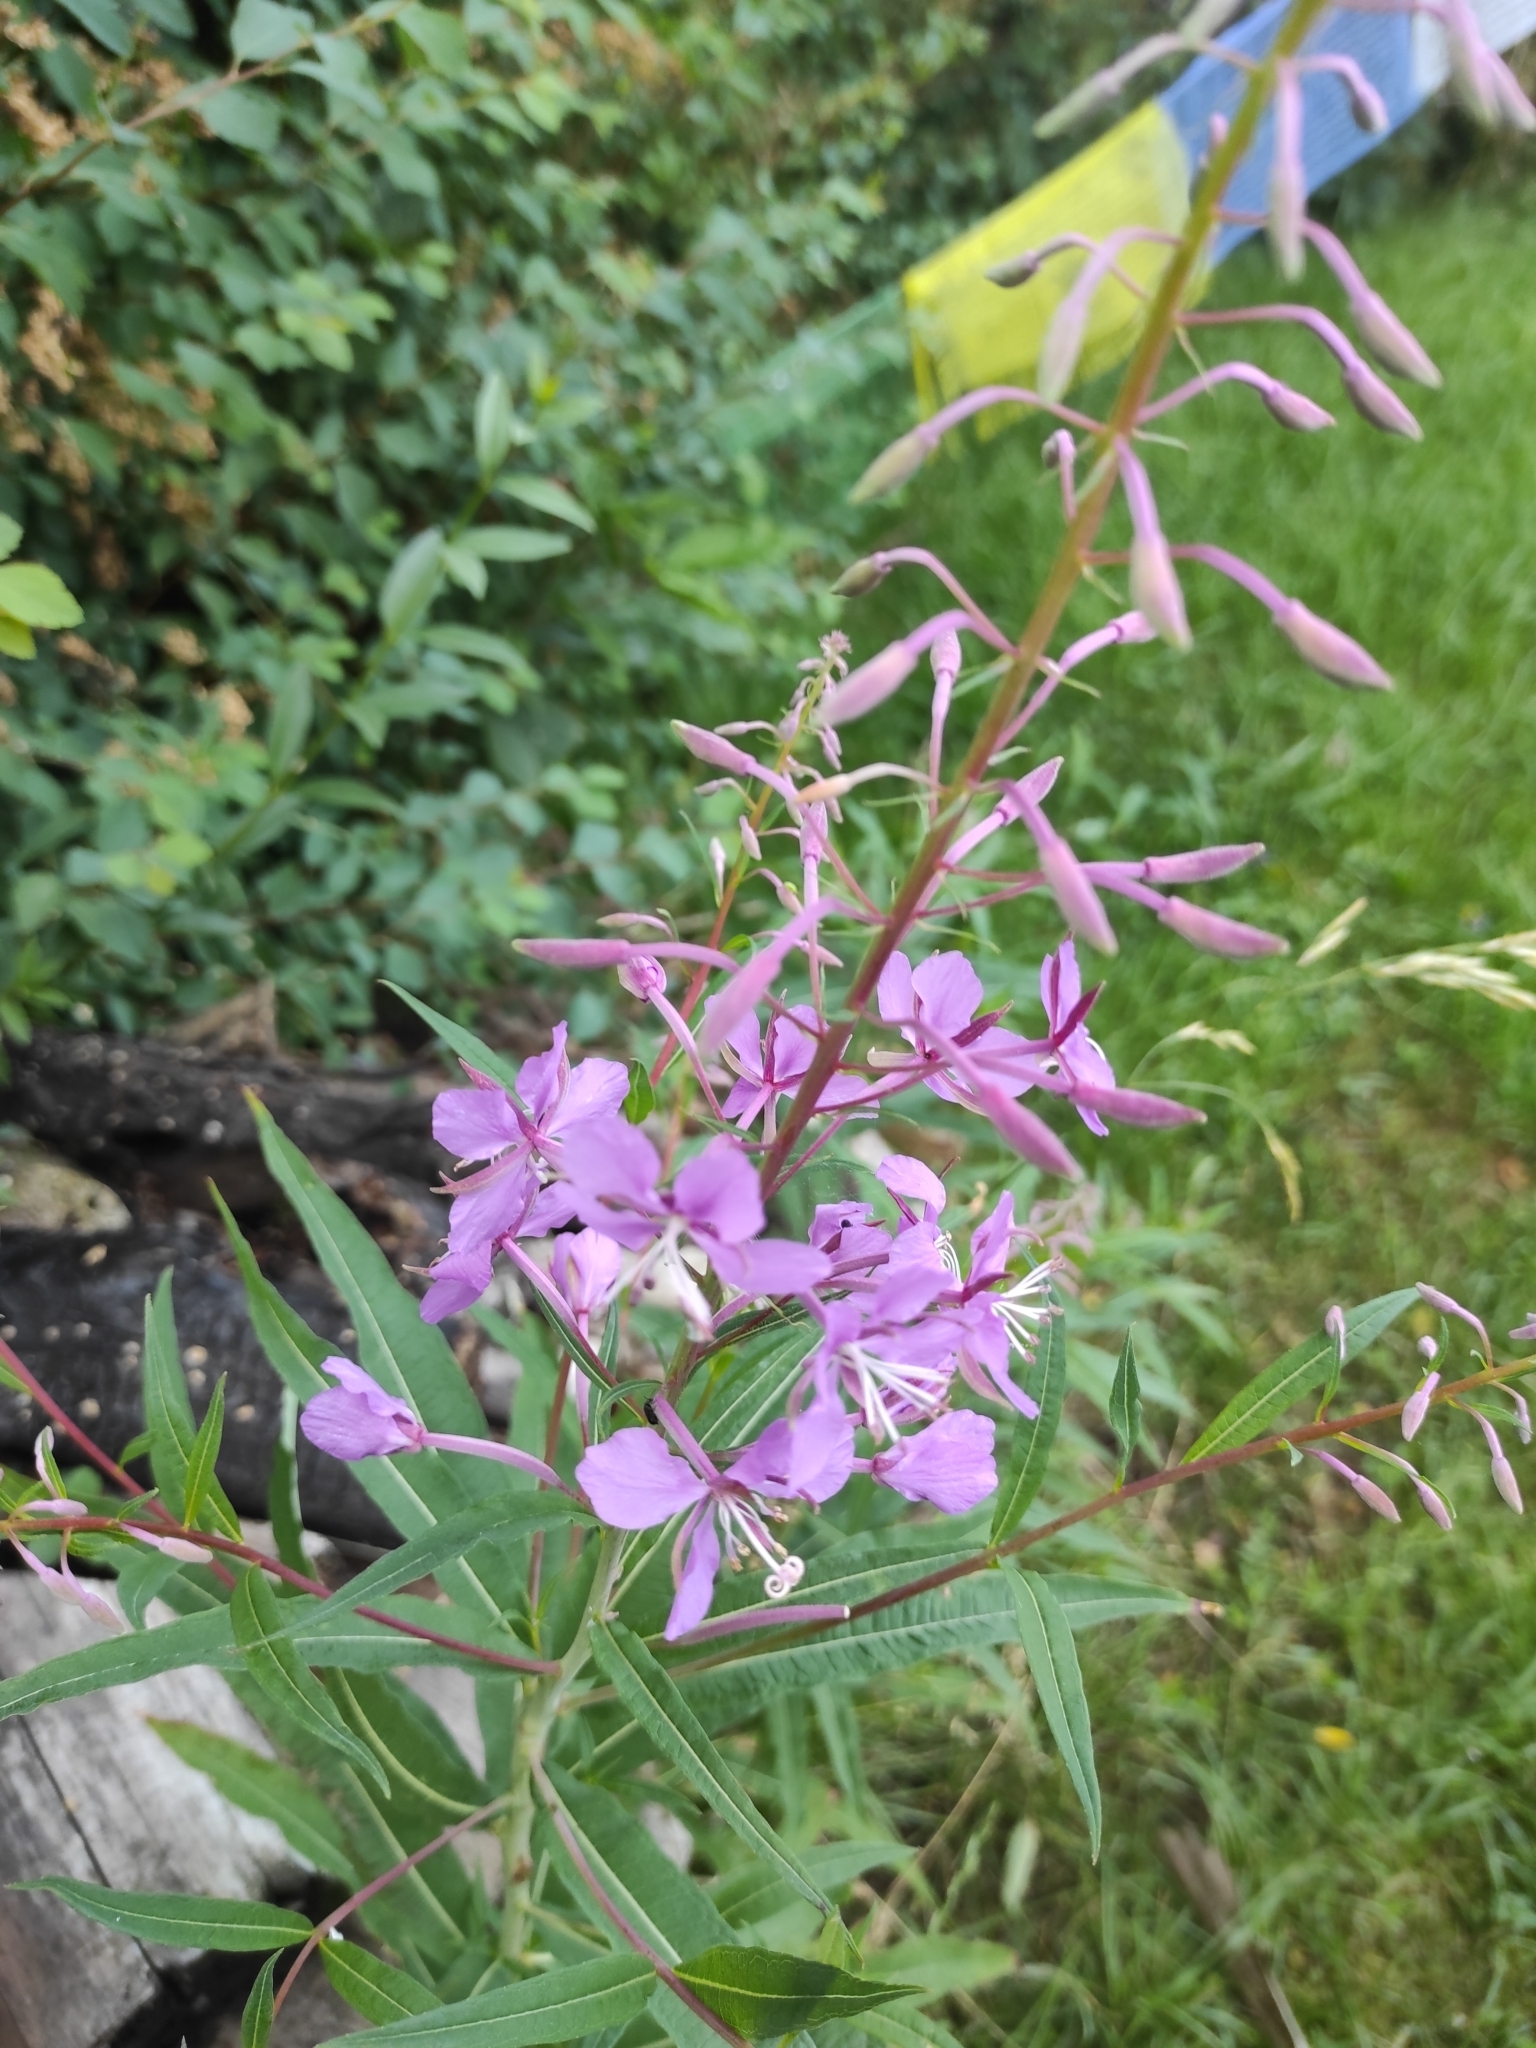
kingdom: Plantae
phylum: Tracheophyta
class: Magnoliopsida
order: Myrtales
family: Onagraceae
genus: Chamaenerion
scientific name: Chamaenerion angustifolium
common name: Fireweed
